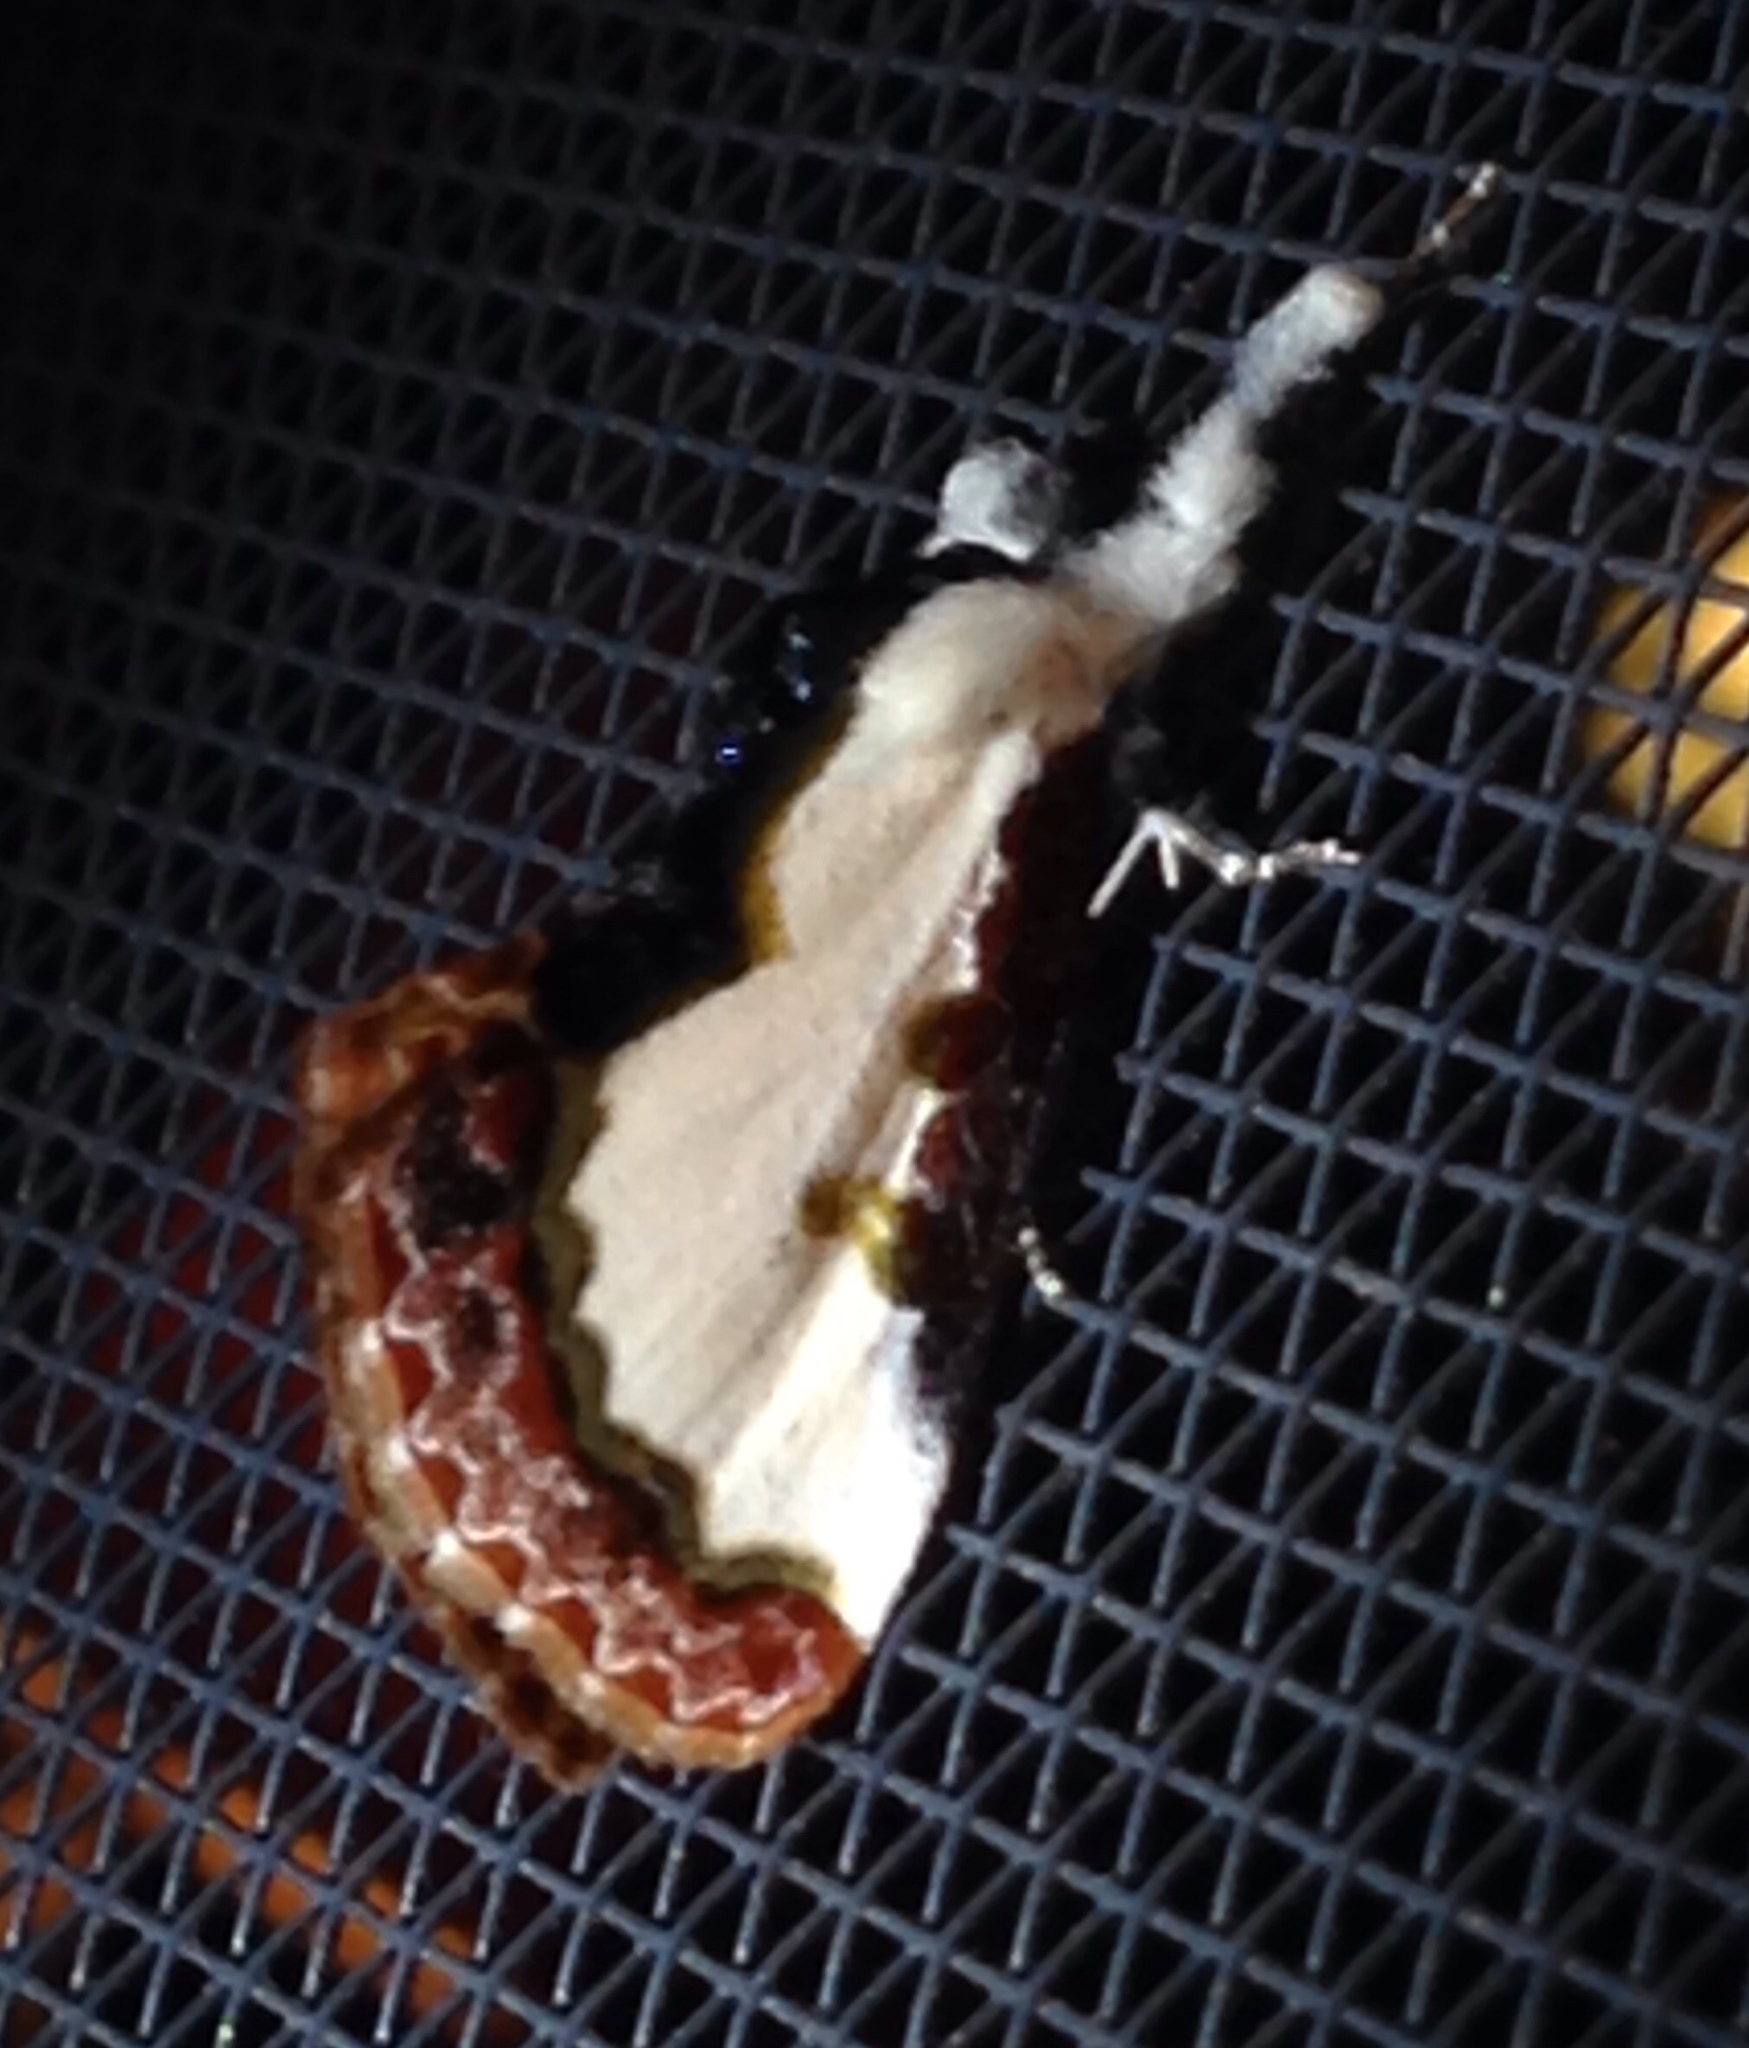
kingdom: Animalia
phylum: Arthropoda
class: Insecta
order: Lepidoptera
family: Noctuidae
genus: Eudryas
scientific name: Eudryas unio
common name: Pearly wood-nymph
